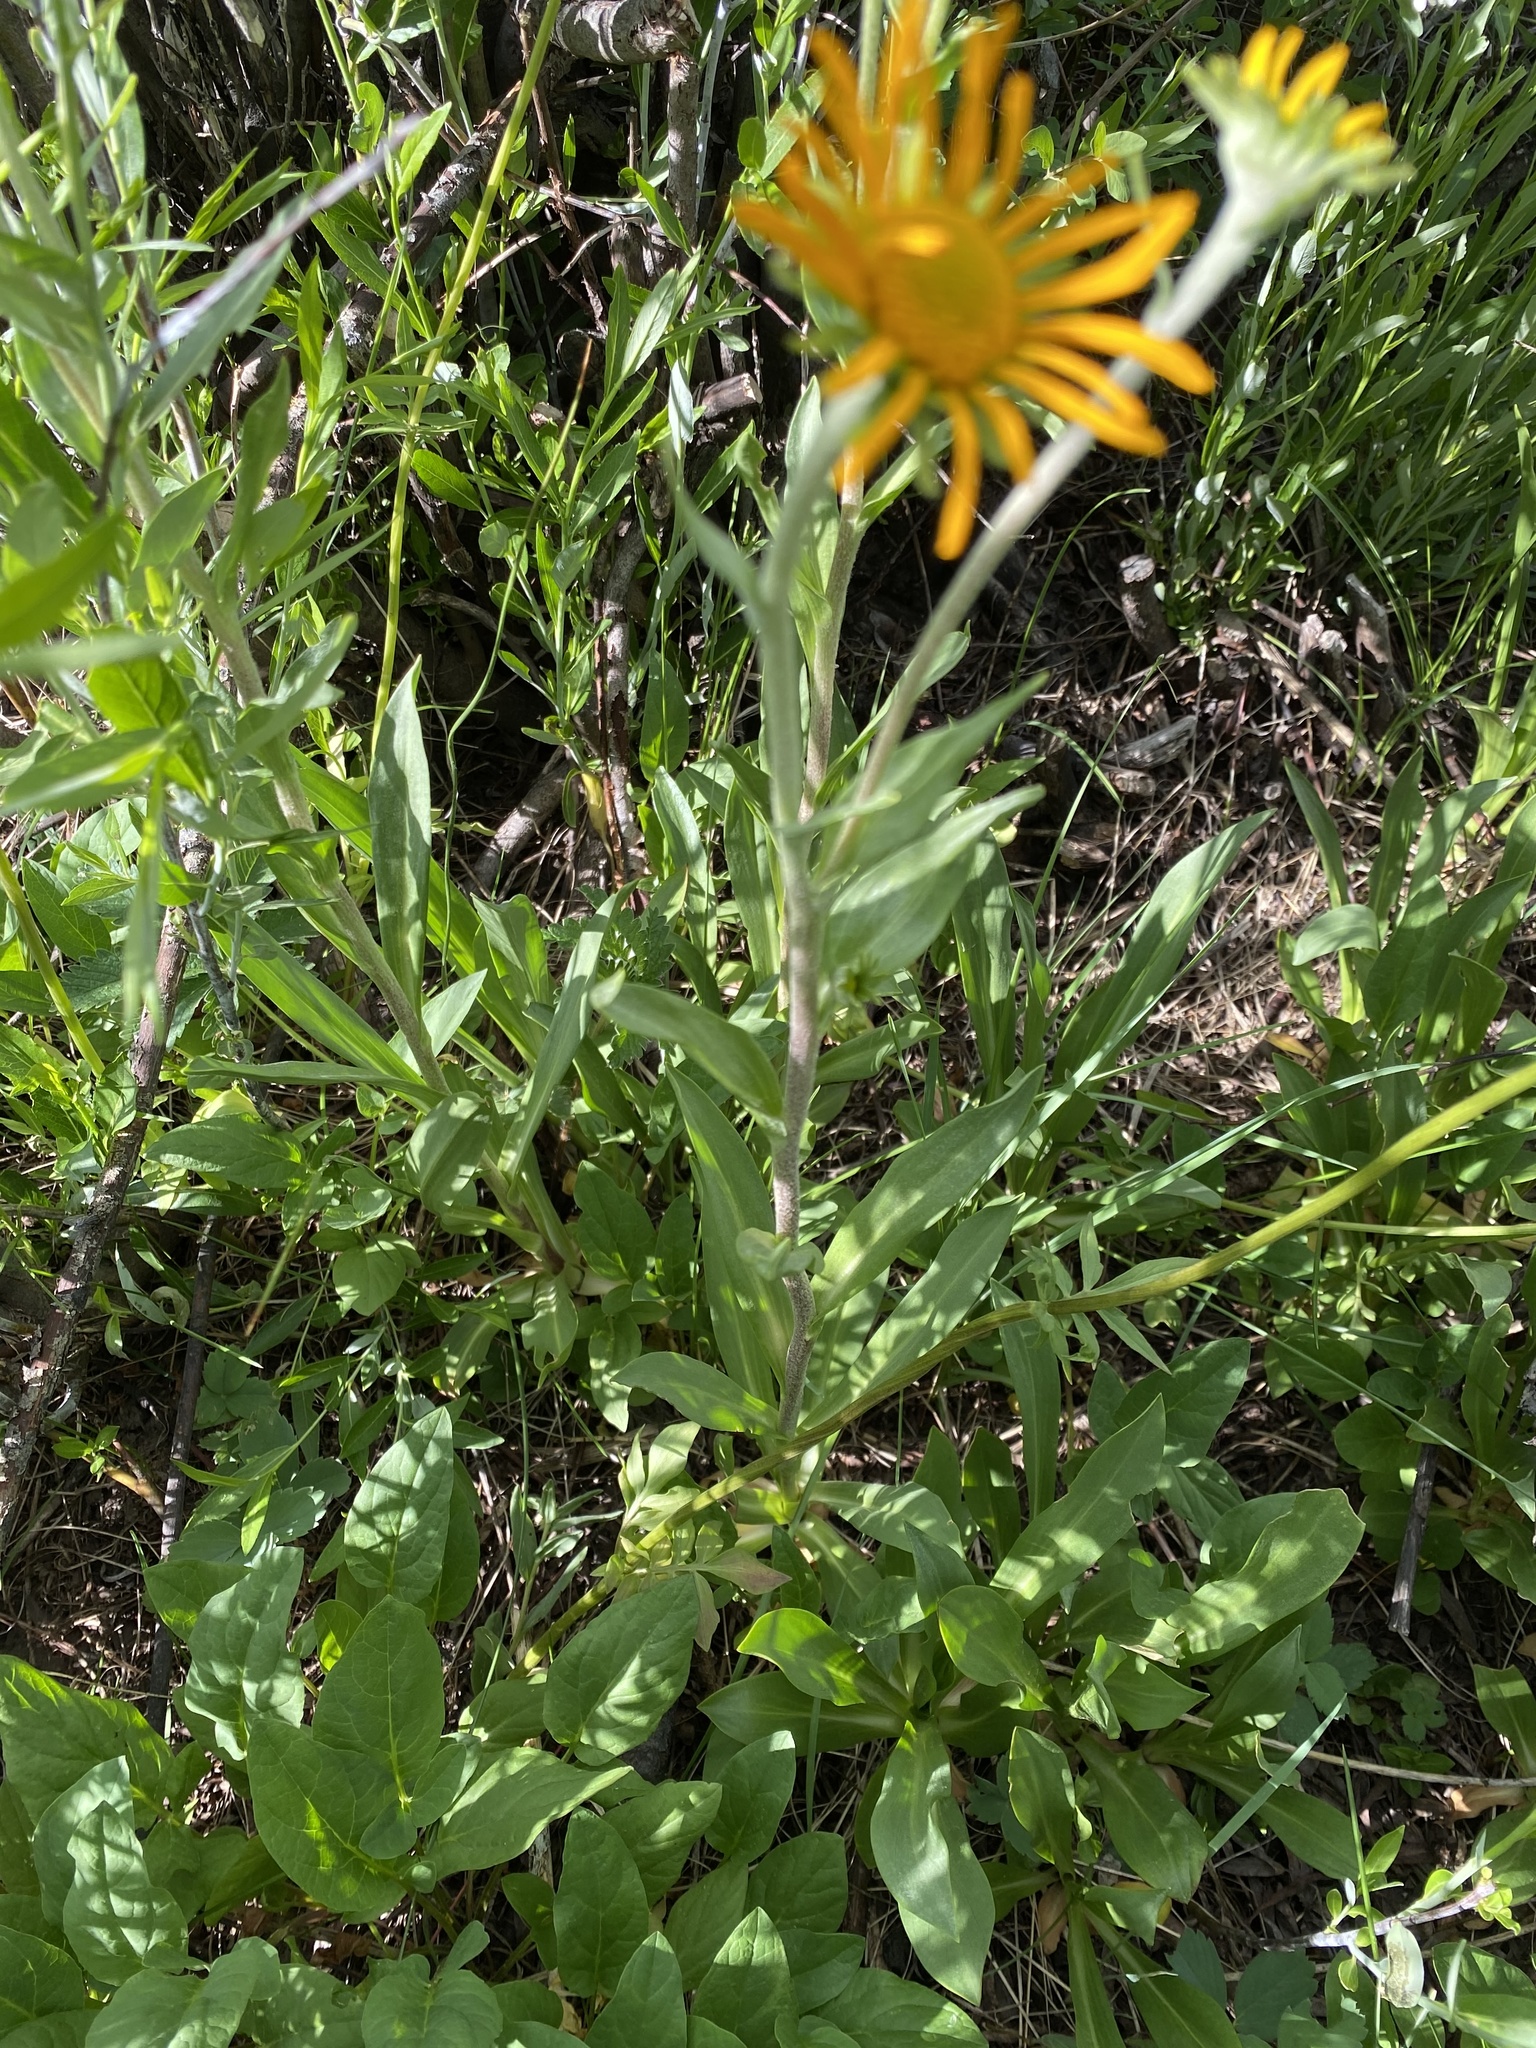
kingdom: Plantae
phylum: Tracheophyta
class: Magnoliopsida
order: Asterales
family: Asteraceae
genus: Hymenoxys
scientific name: Hymenoxys hoopesii
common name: Orange-sneezeweed
